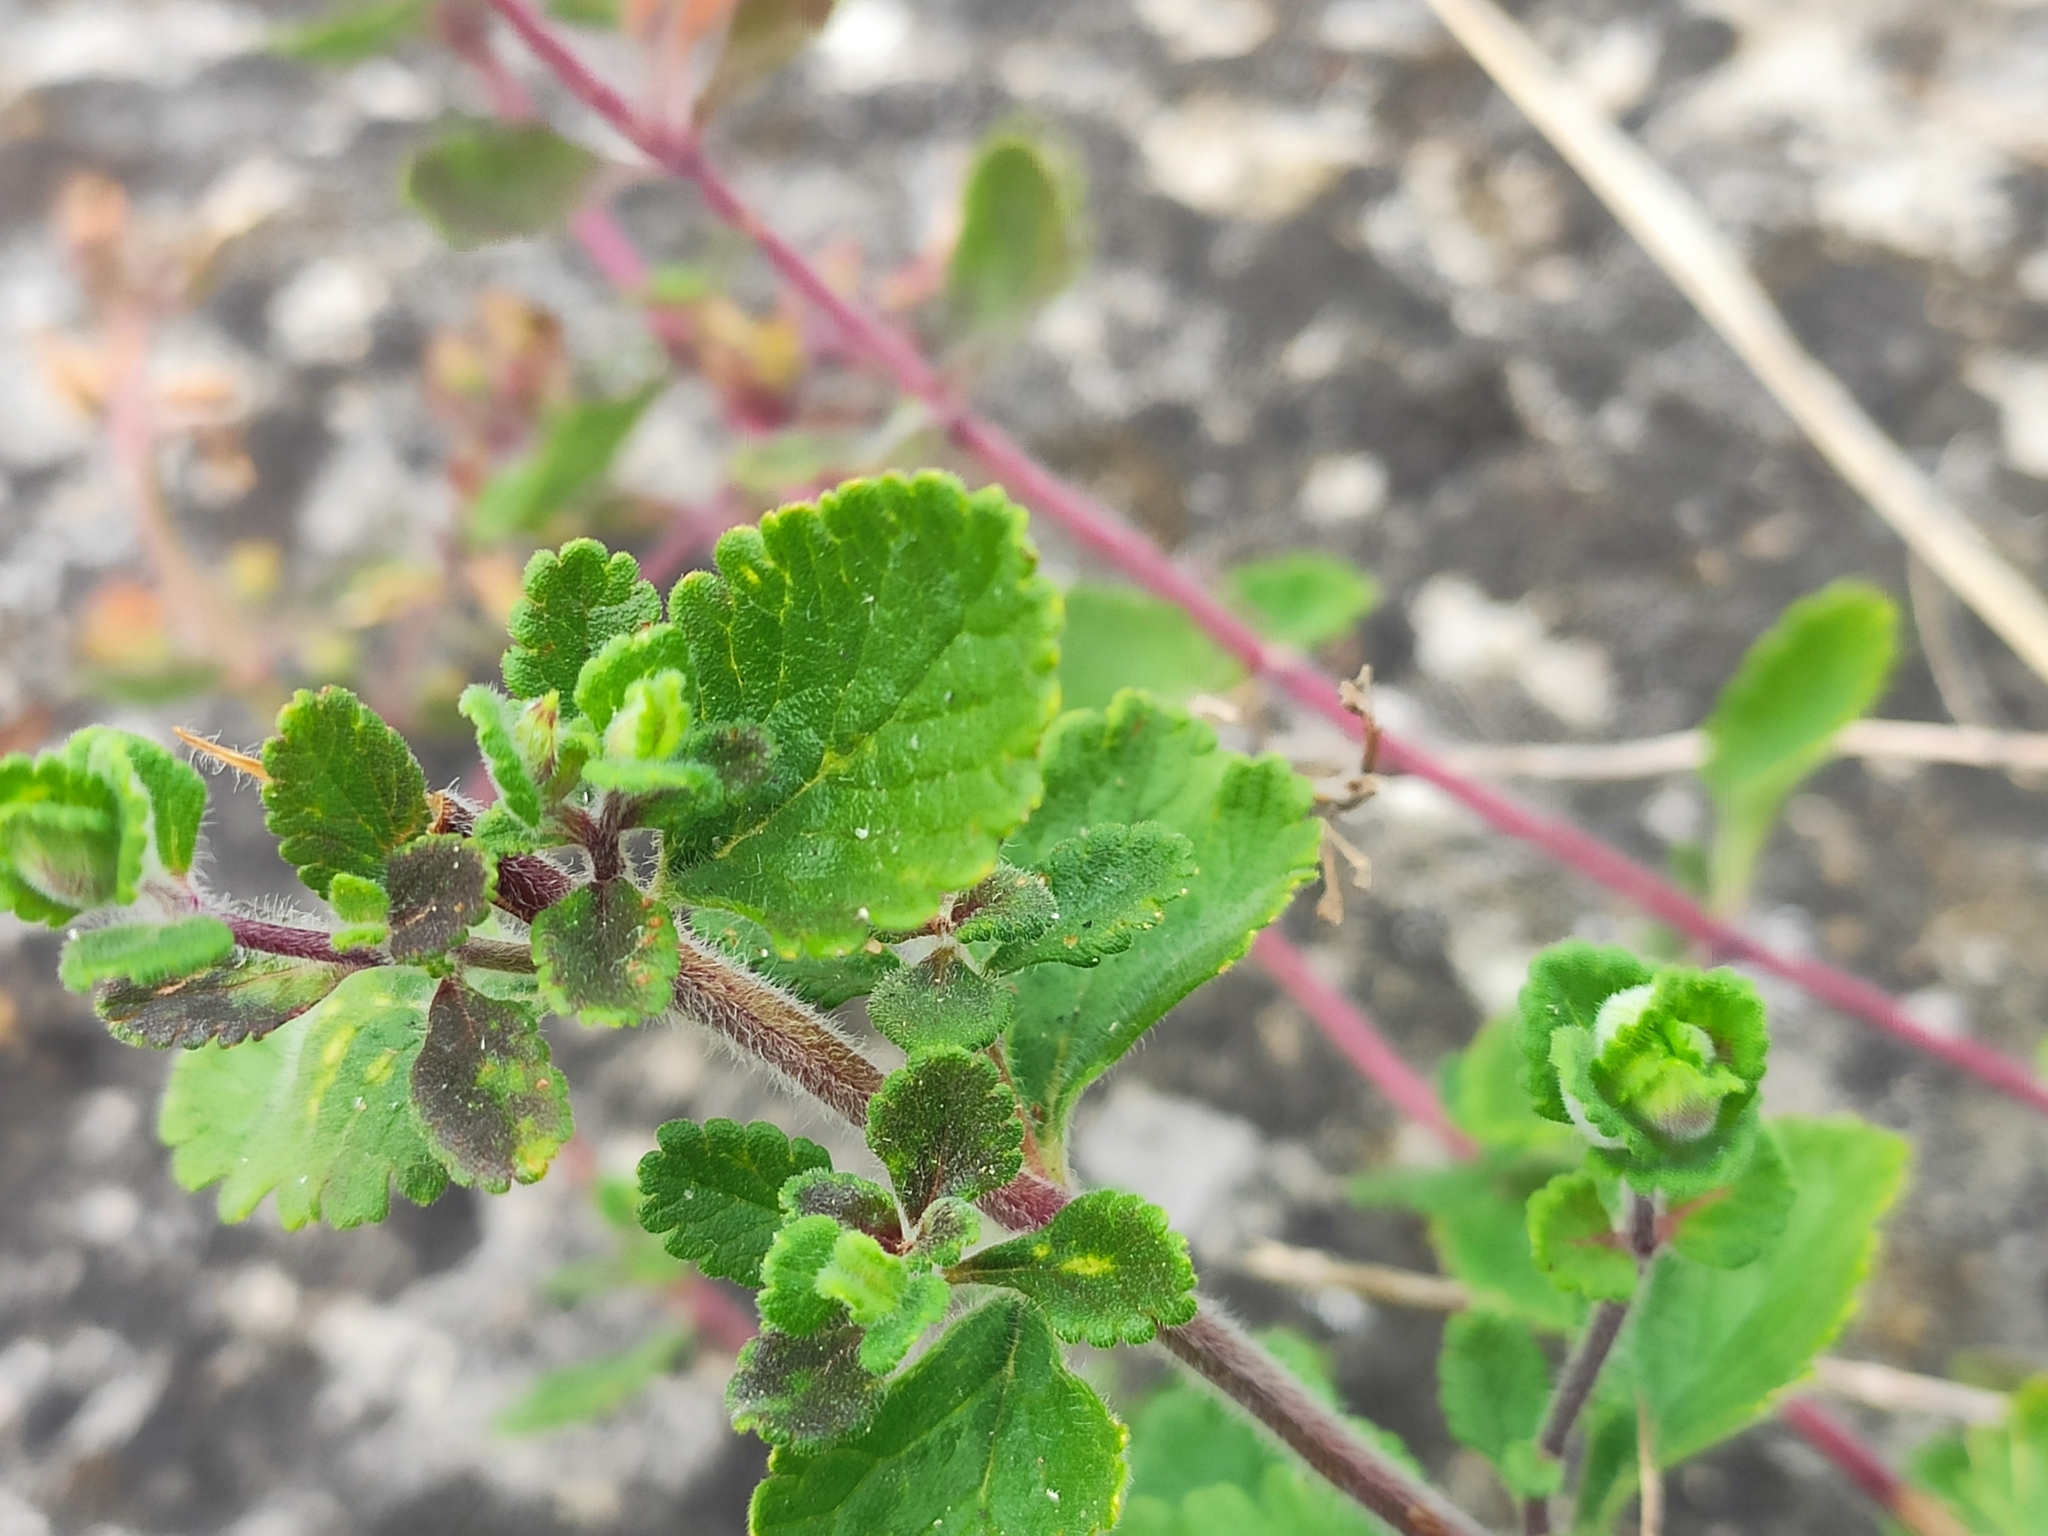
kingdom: Plantae
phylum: Tracheophyta
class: Magnoliopsida
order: Lamiales
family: Lamiaceae
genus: Teucrium
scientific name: Teucrium chamaedrys
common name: Wall germander
